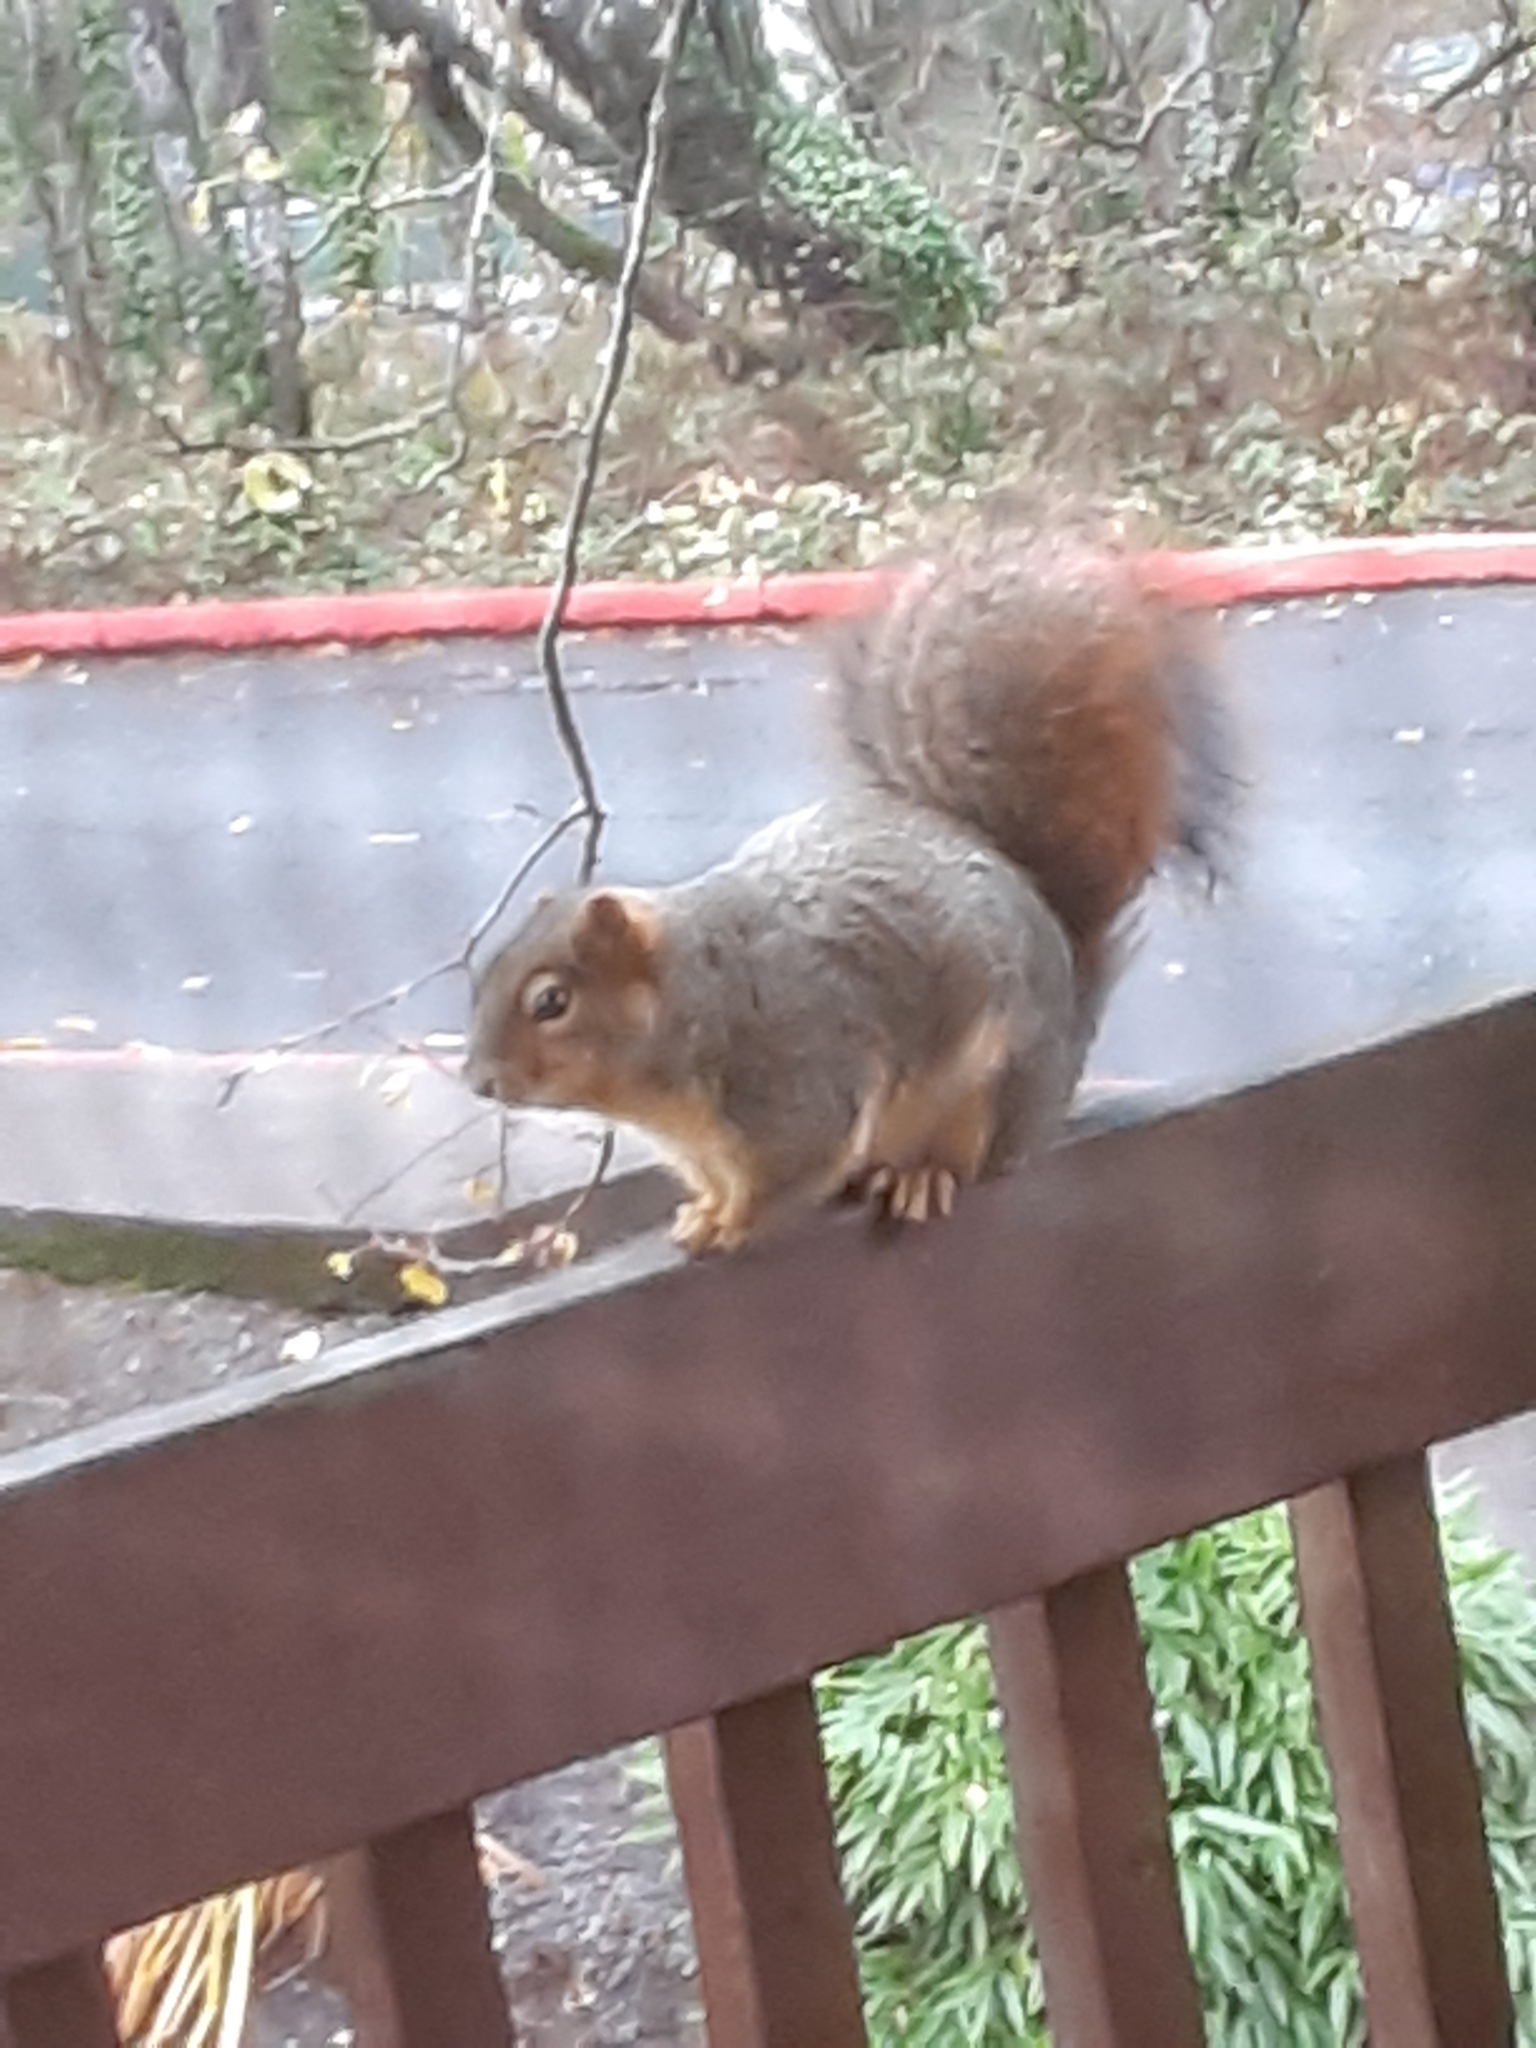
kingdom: Animalia
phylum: Chordata
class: Mammalia
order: Rodentia
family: Sciuridae
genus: Sciurus
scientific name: Sciurus niger
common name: Fox squirrel
